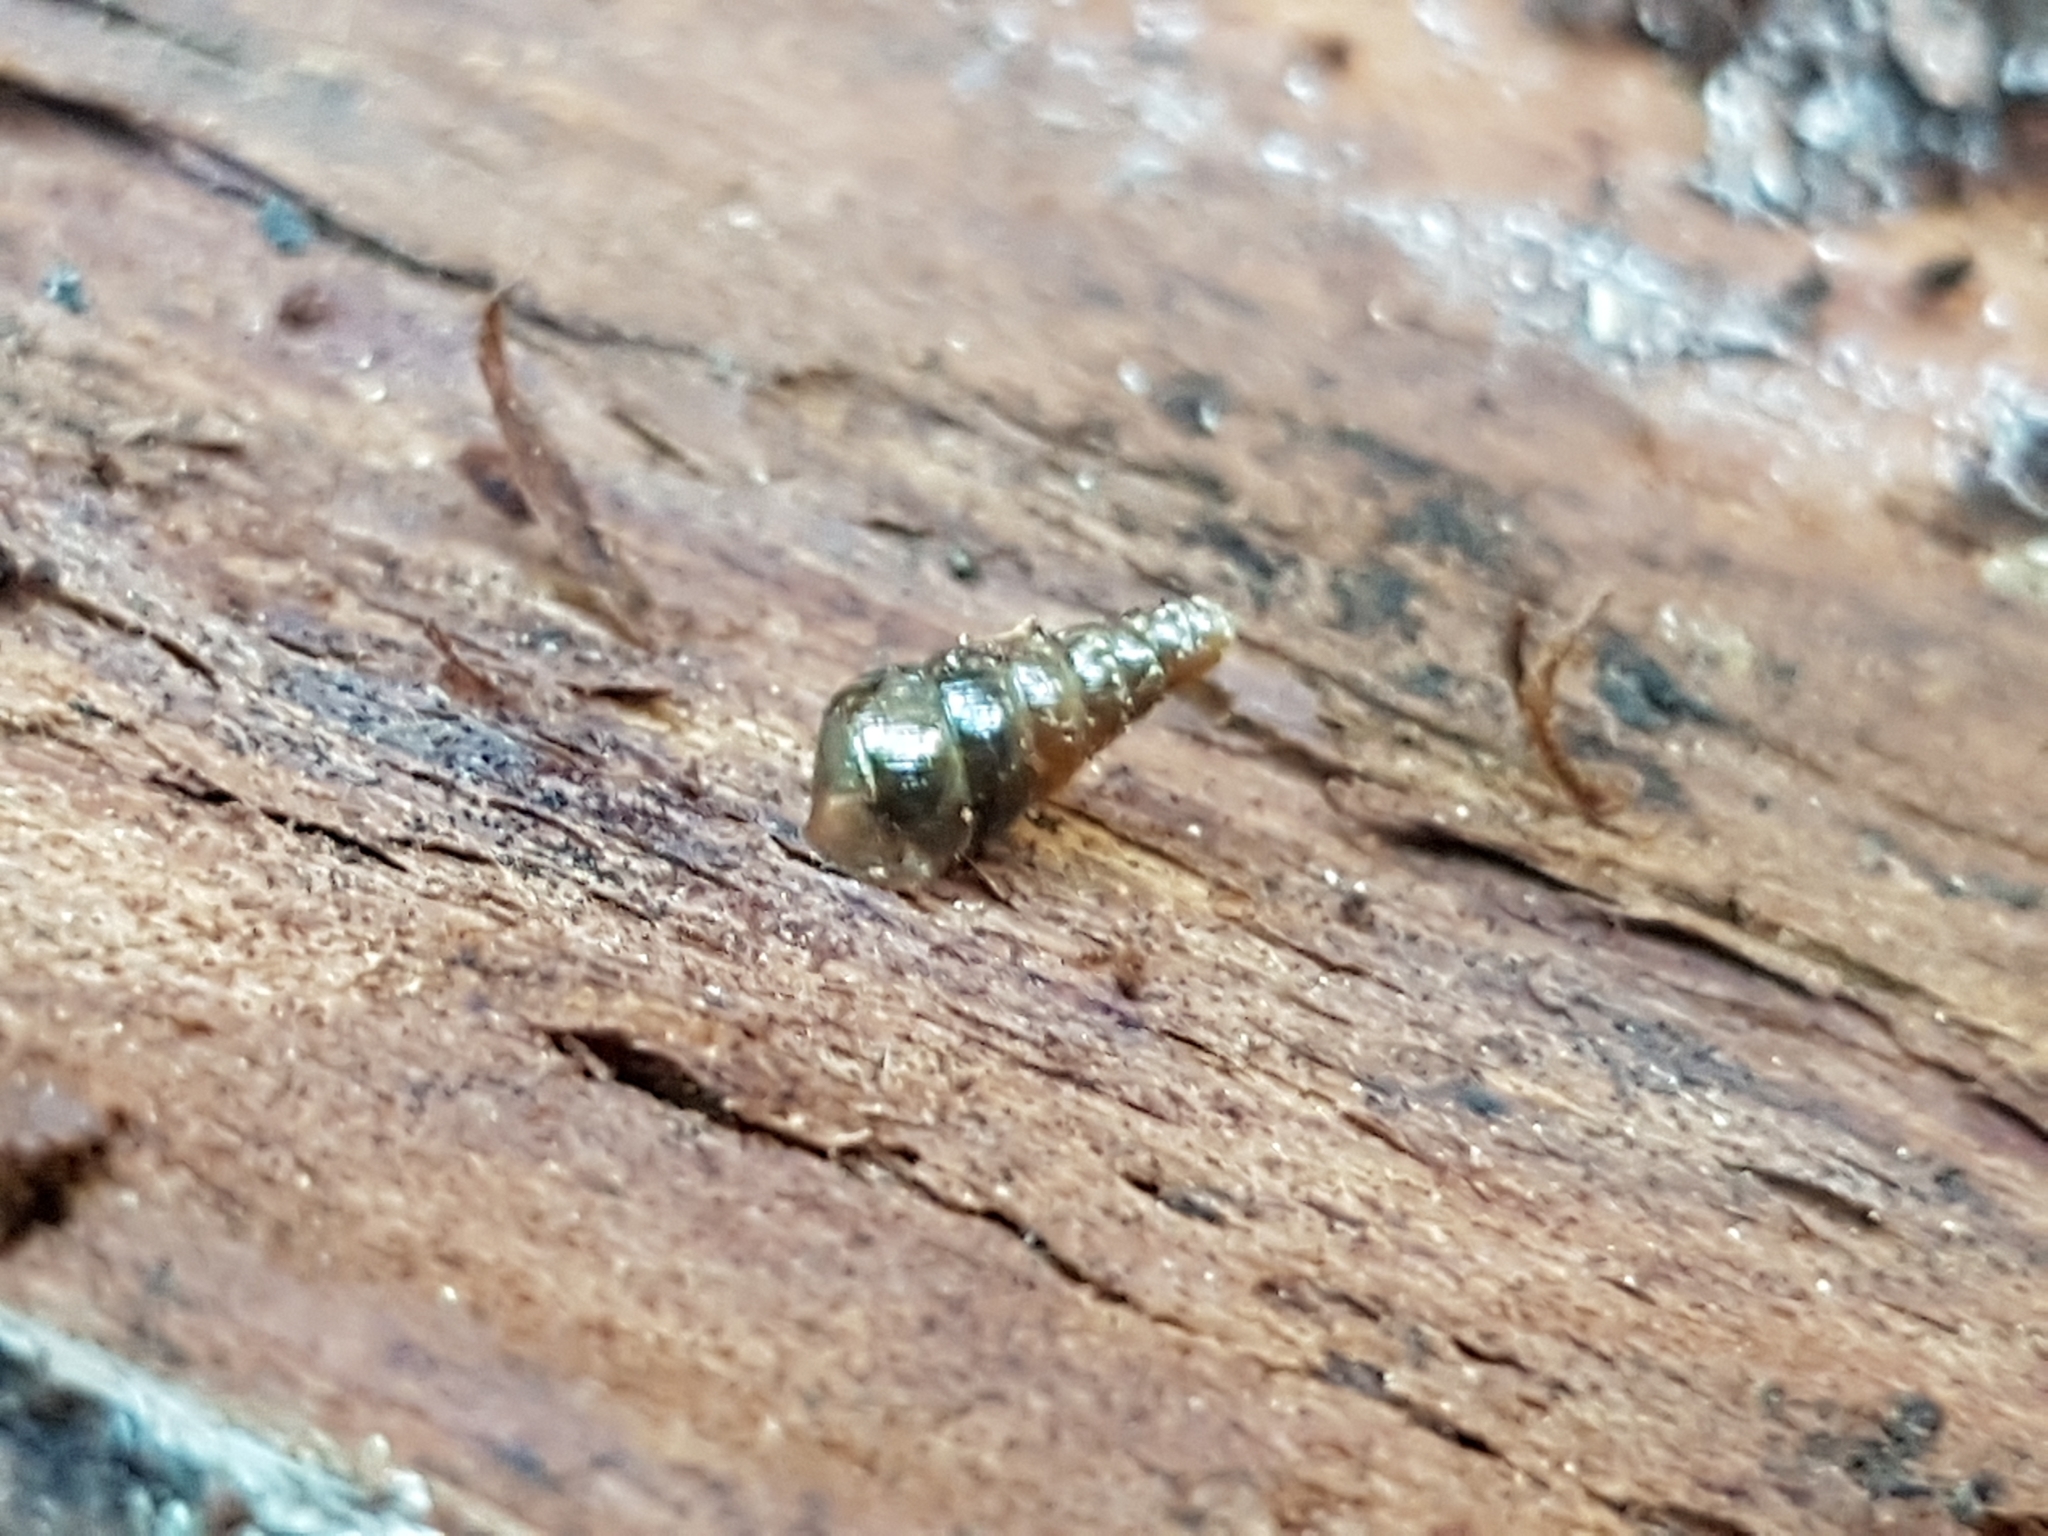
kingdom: Animalia
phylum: Mollusca
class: Gastropoda
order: Stylommatophora
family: Clausiliidae
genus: Cochlodina
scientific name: Cochlodina laminata
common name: Plaited door snail
